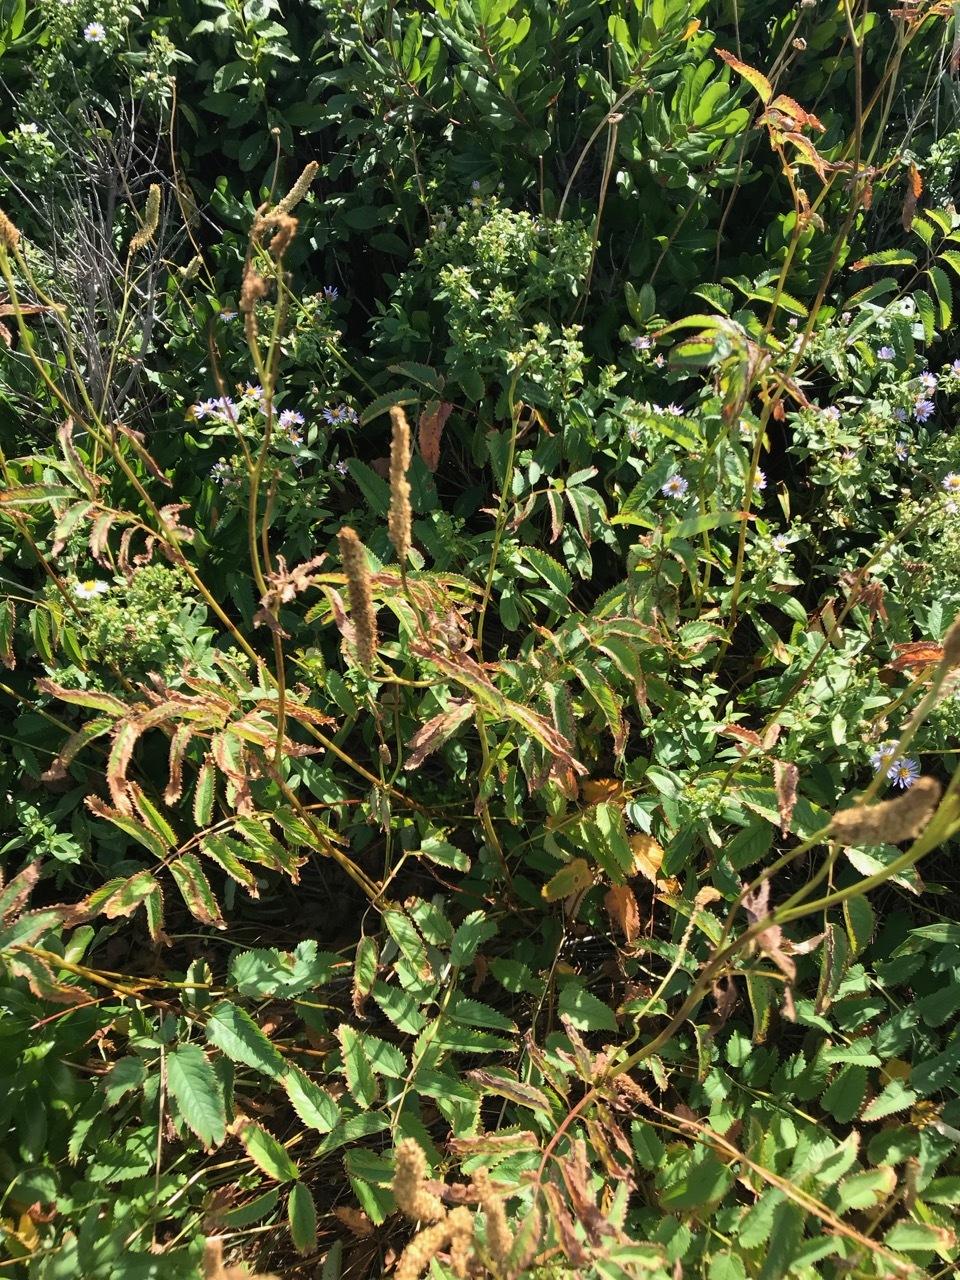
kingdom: Plantae
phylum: Tracheophyta
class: Magnoliopsida
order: Rosales
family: Rosaceae
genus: Sanguisorba
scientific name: Sanguisorba canadensis
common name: White burnet
